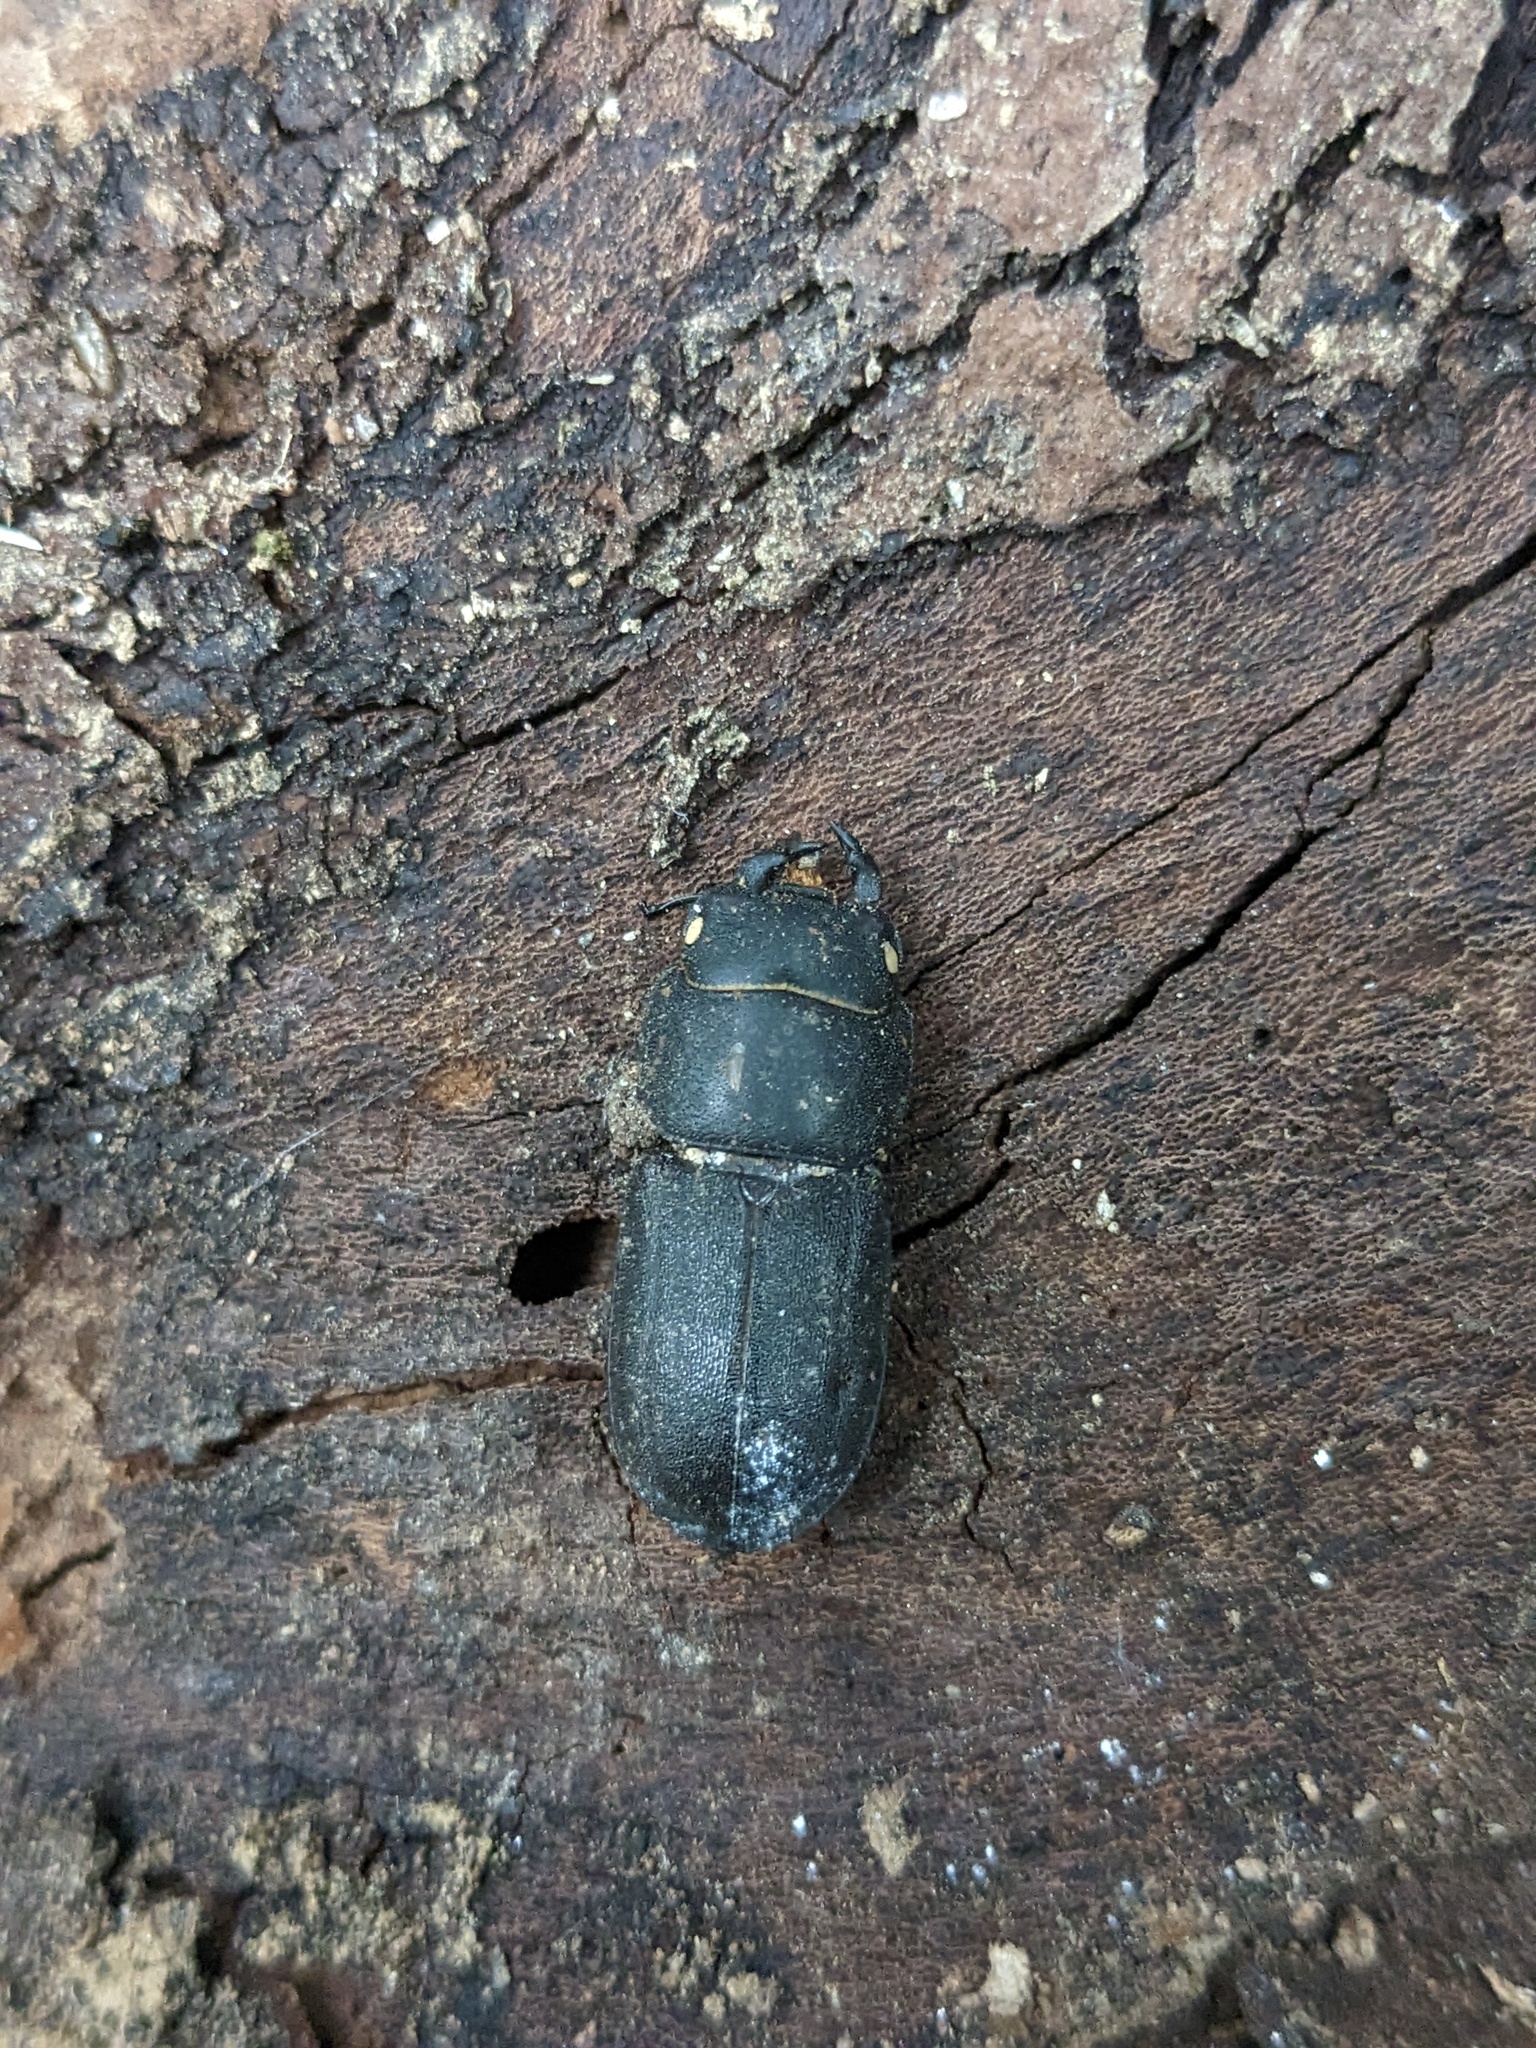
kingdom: Animalia
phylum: Arthropoda
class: Insecta
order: Coleoptera
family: Lucanidae
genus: Dorcus
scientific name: Dorcus parallelipipedus
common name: Lesser stag beetle
